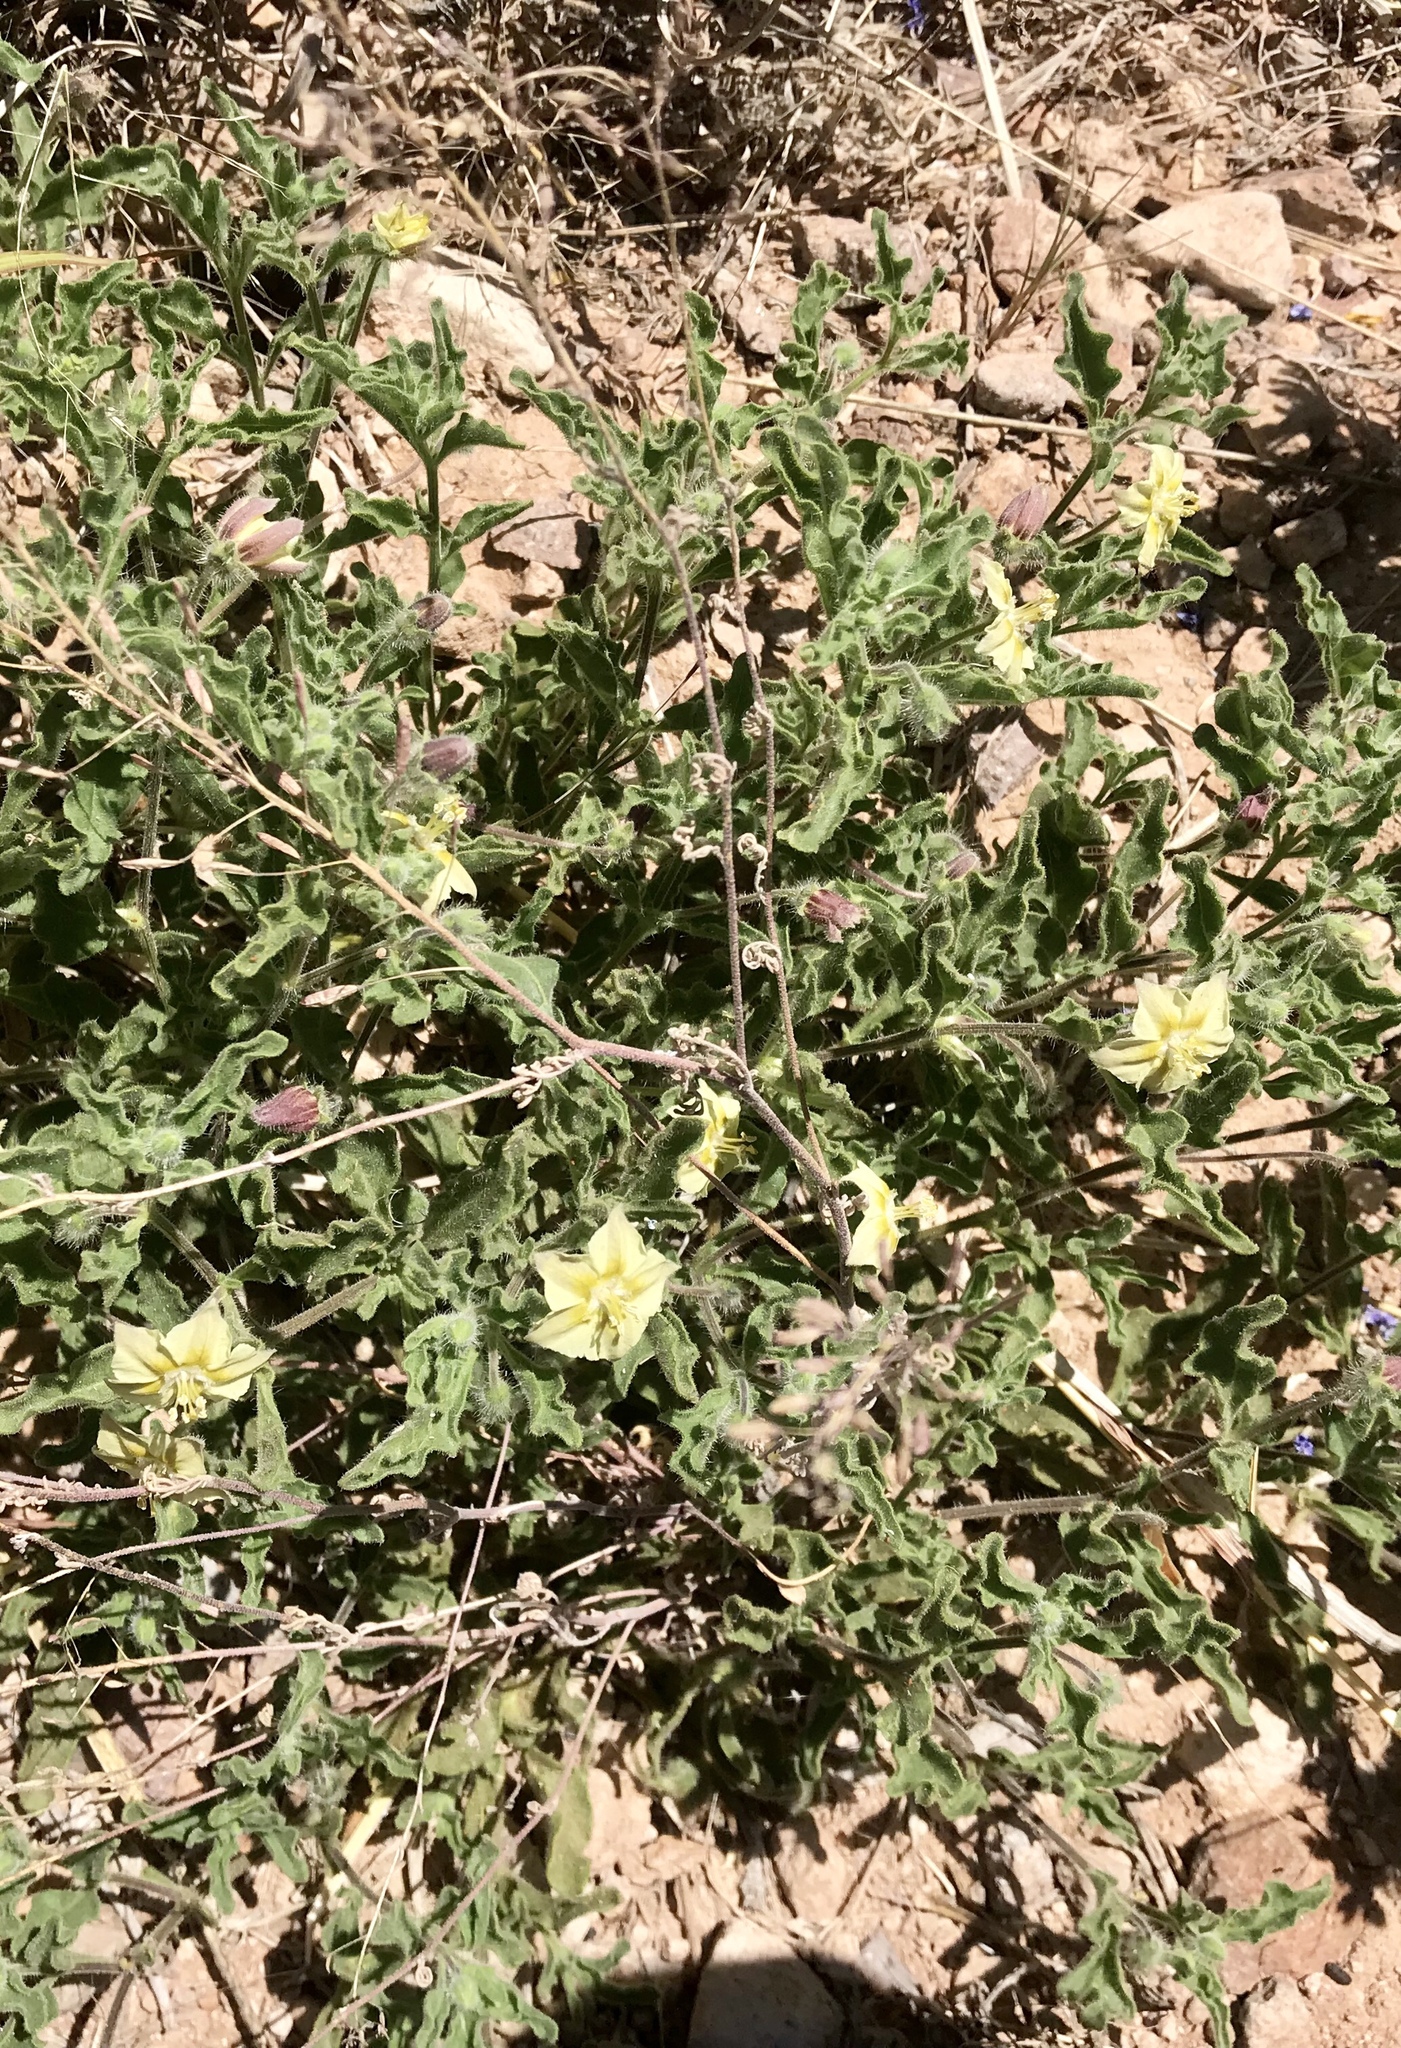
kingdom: Plantae
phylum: Tracheophyta
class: Magnoliopsida
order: Solanales
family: Solanaceae
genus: Chamaesaracha
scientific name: Chamaesaracha sordida
